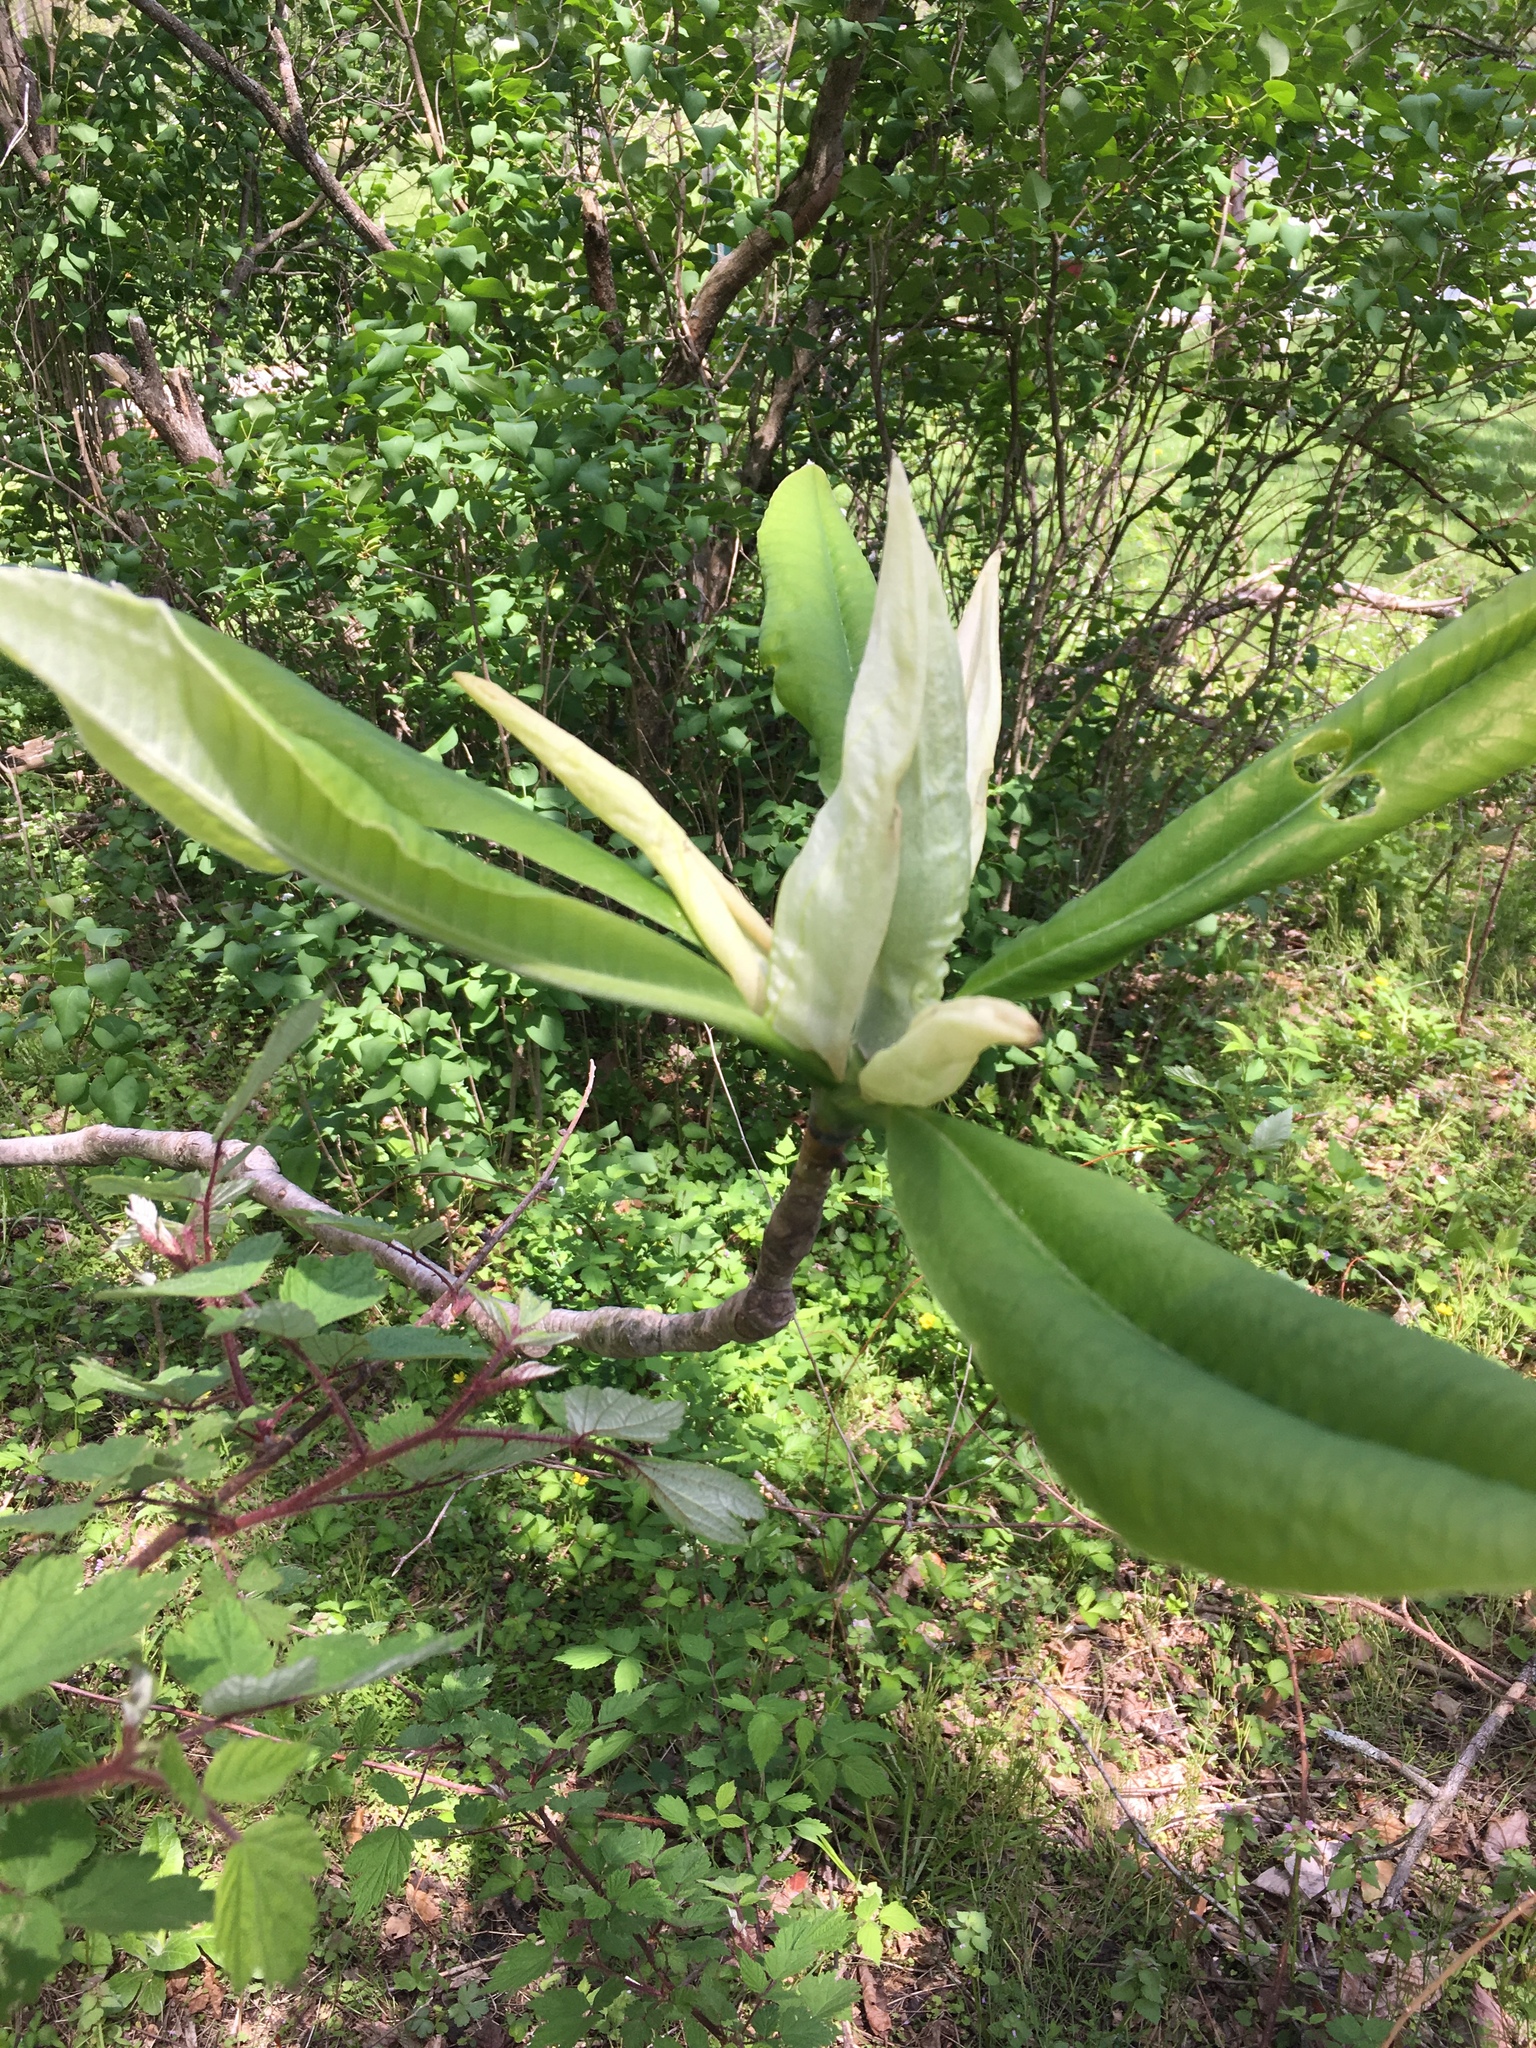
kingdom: Plantae
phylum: Tracheophyta
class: Magnoliopsida
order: Magnoliales
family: Magnoliaceae
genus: Magnolia
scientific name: Magnolia tripetala
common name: Umbrella magnolia
